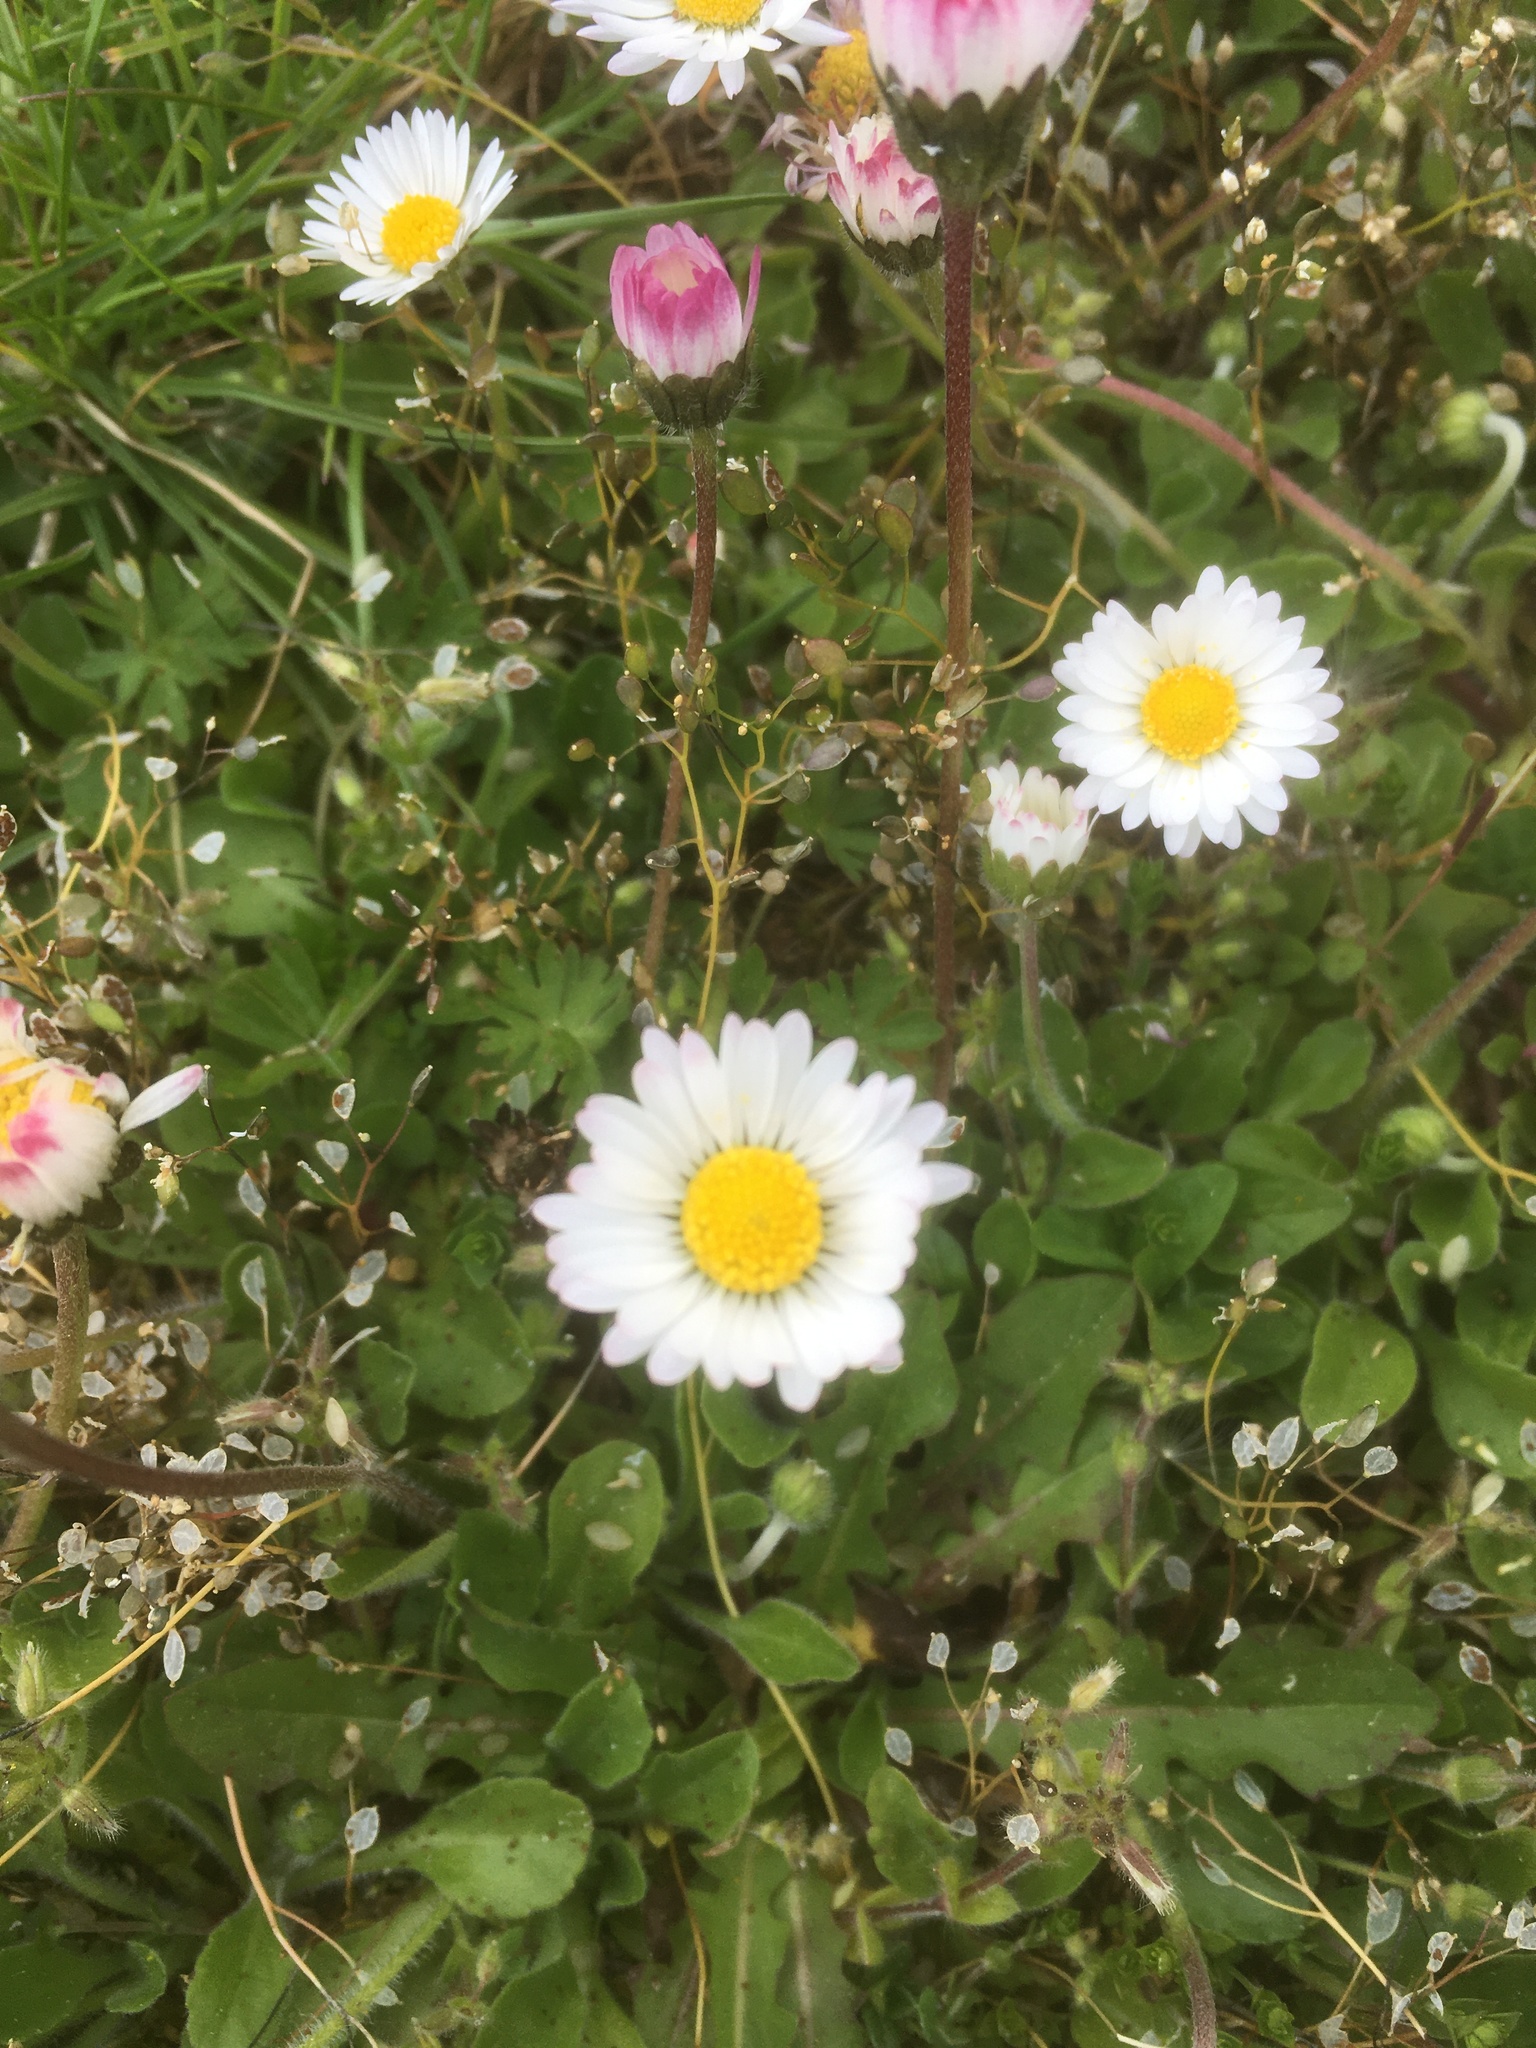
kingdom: Plantae
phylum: Tracheophyta
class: Magnoliopsida
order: Asterales
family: Asteraceae
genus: Bellis
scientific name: Bellis perennis
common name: Lawndaisy
